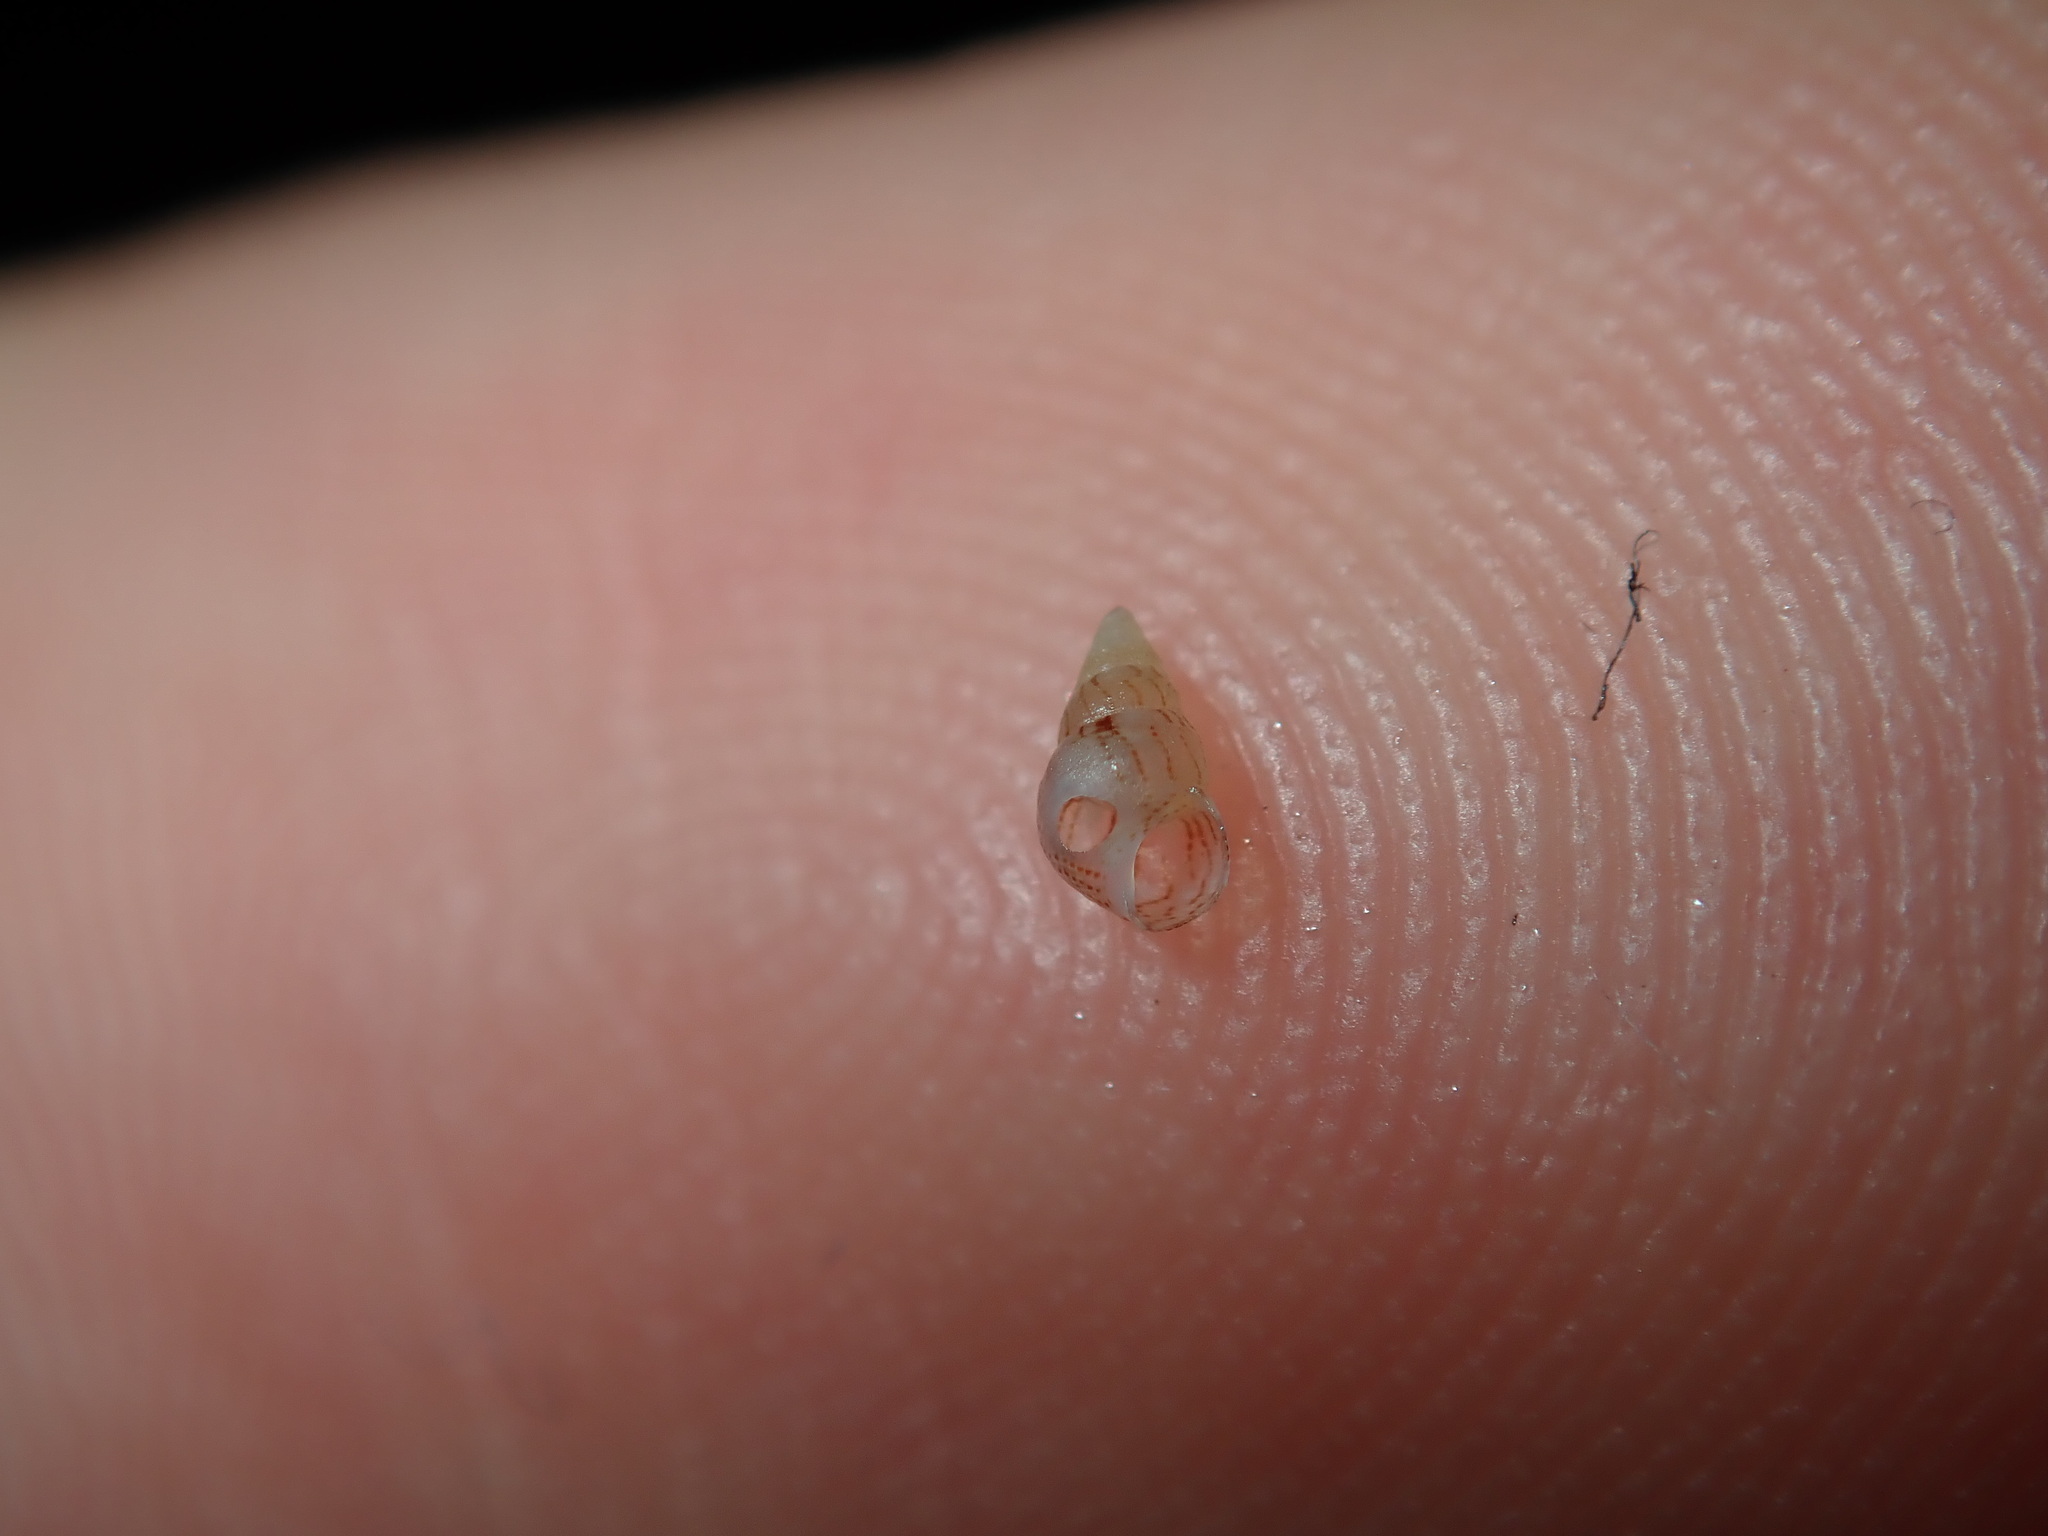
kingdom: Animalia
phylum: Mollusca
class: Gastropoda
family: Litiopidae
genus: Diffalaba
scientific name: Diffalaba opiniosa
